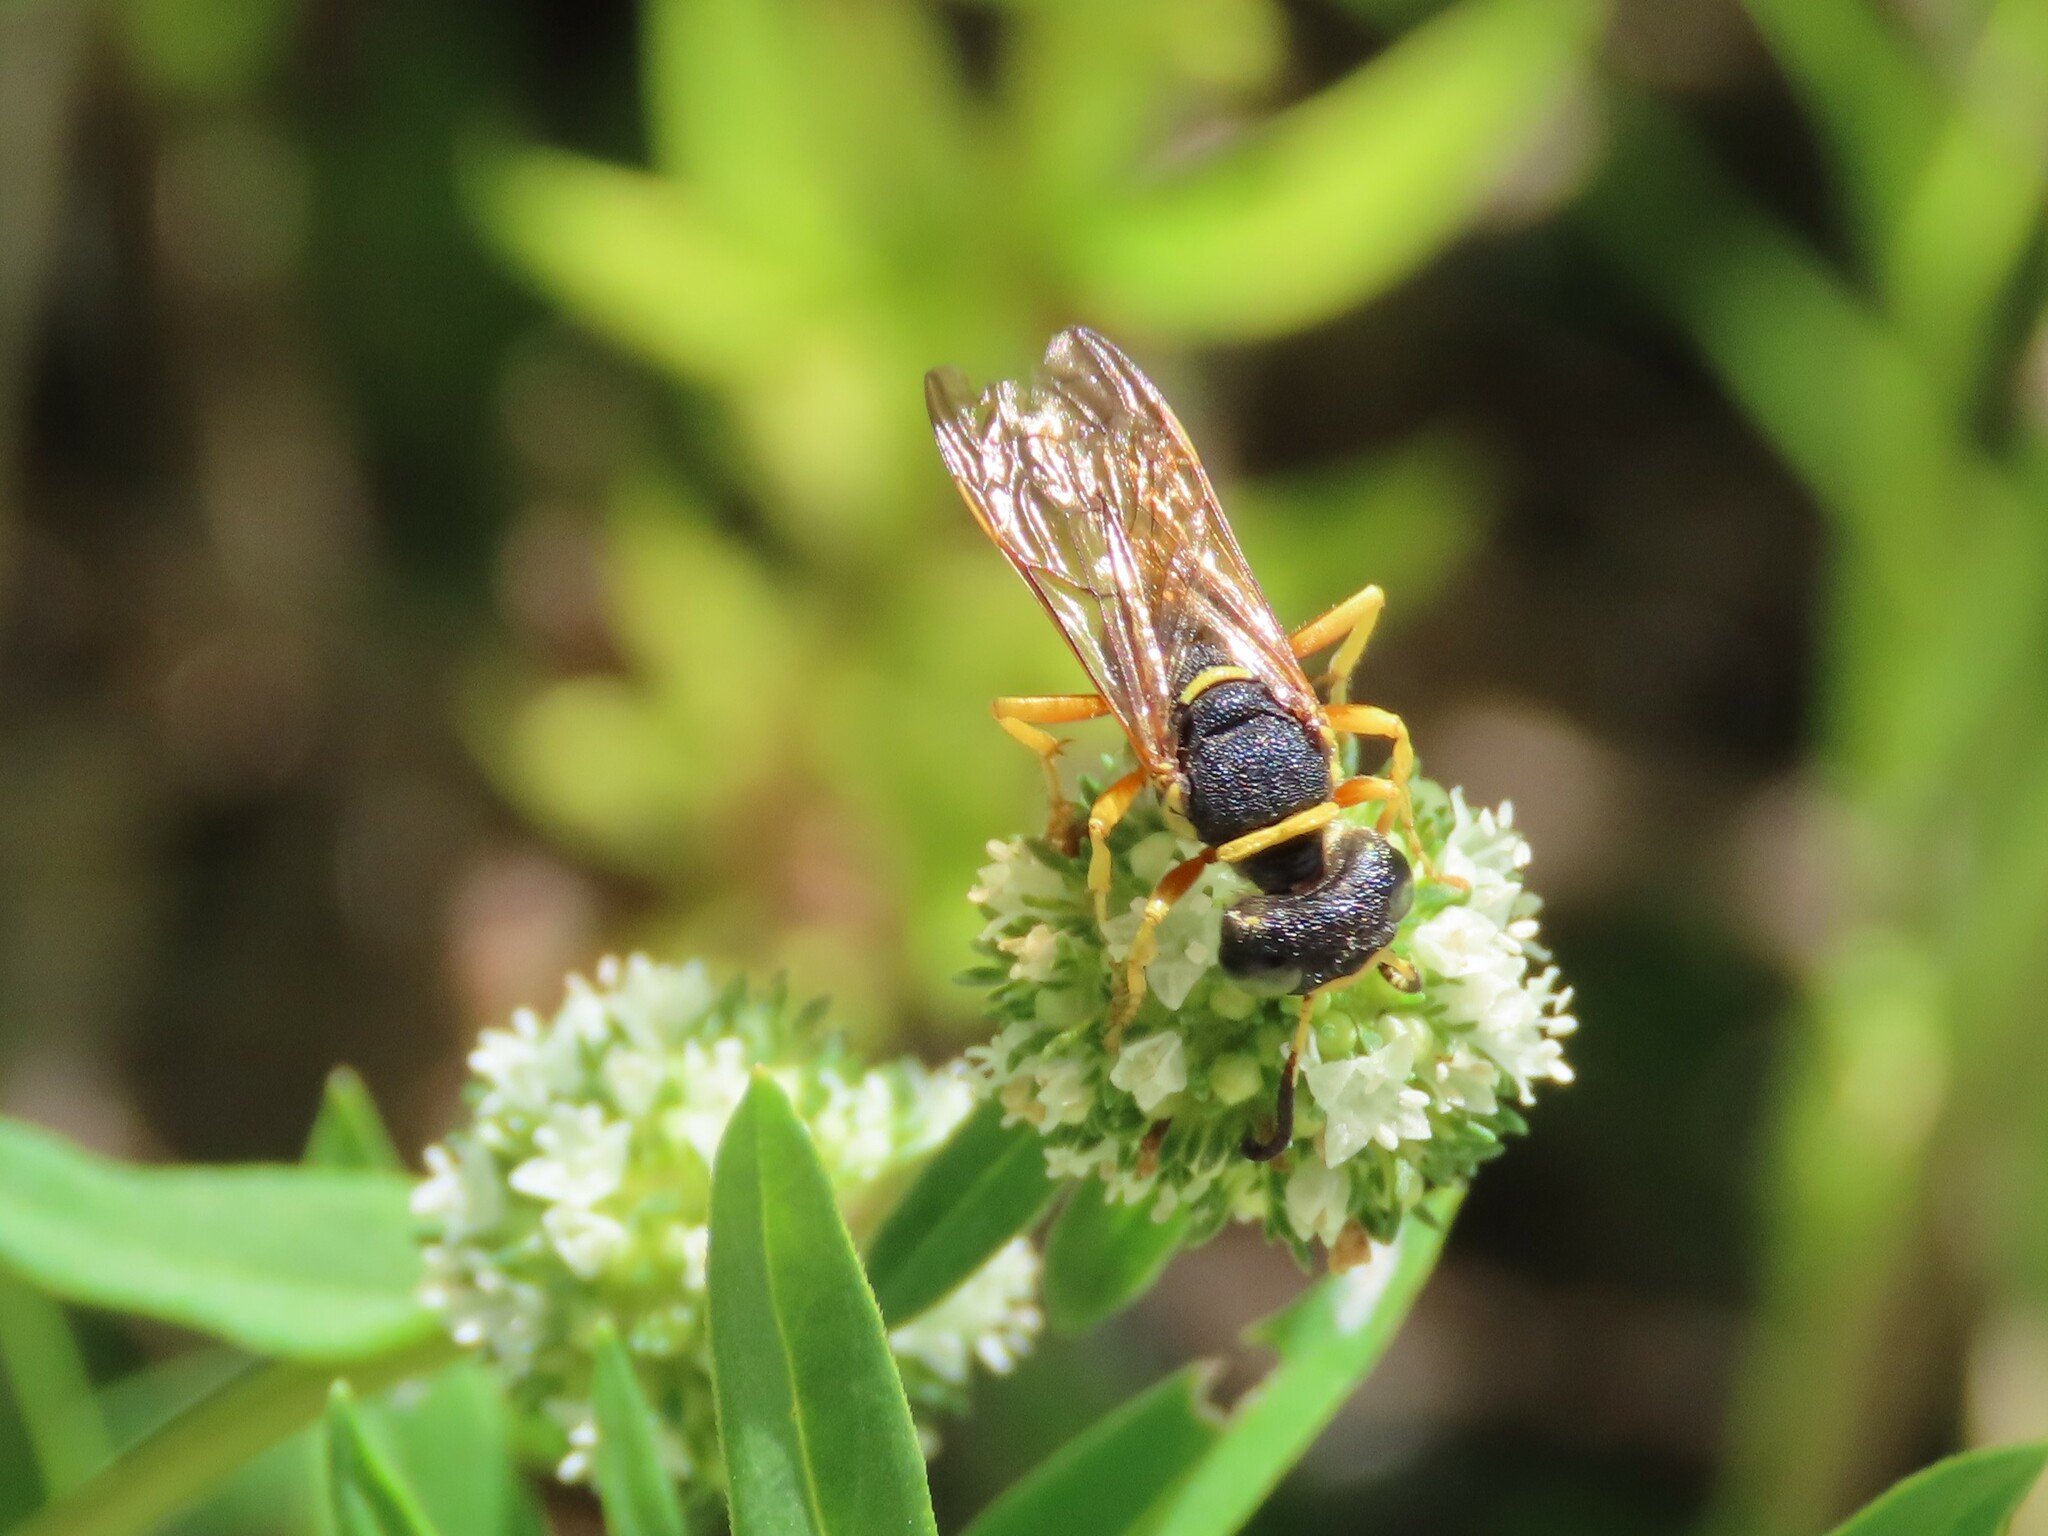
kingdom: Animalia
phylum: Arthropoda
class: Insecta
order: Hymenoptera
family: Crabronidae
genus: Philanthus
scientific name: Philanthus ventilabris
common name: Bee-killer wasp
